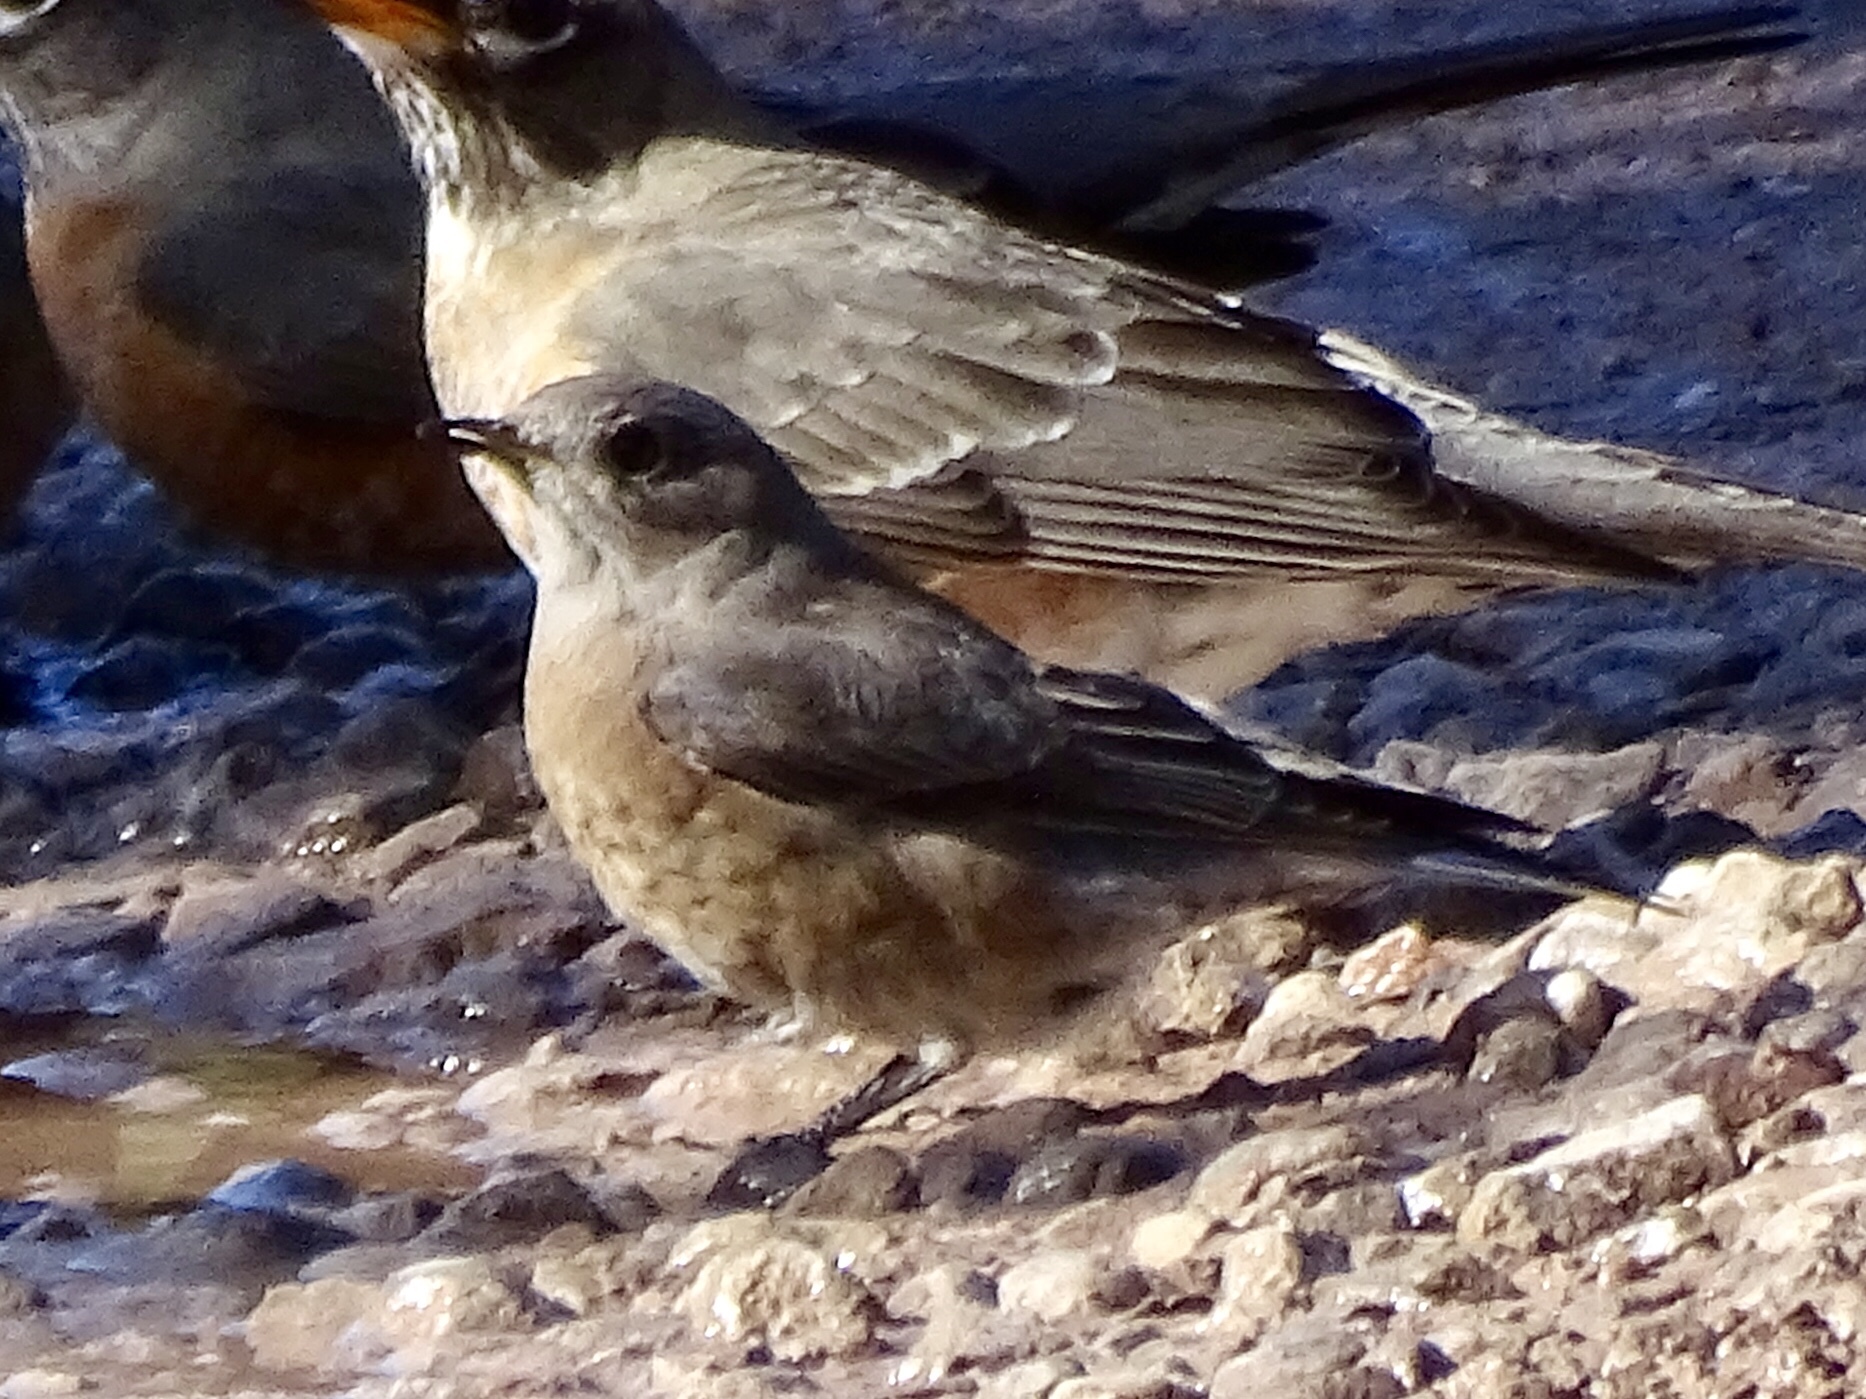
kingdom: Animalia
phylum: Chordata
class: Aves
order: Passeriformes
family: Turdidae
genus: Sialia
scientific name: Sialia mexicana
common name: Western bluebird
